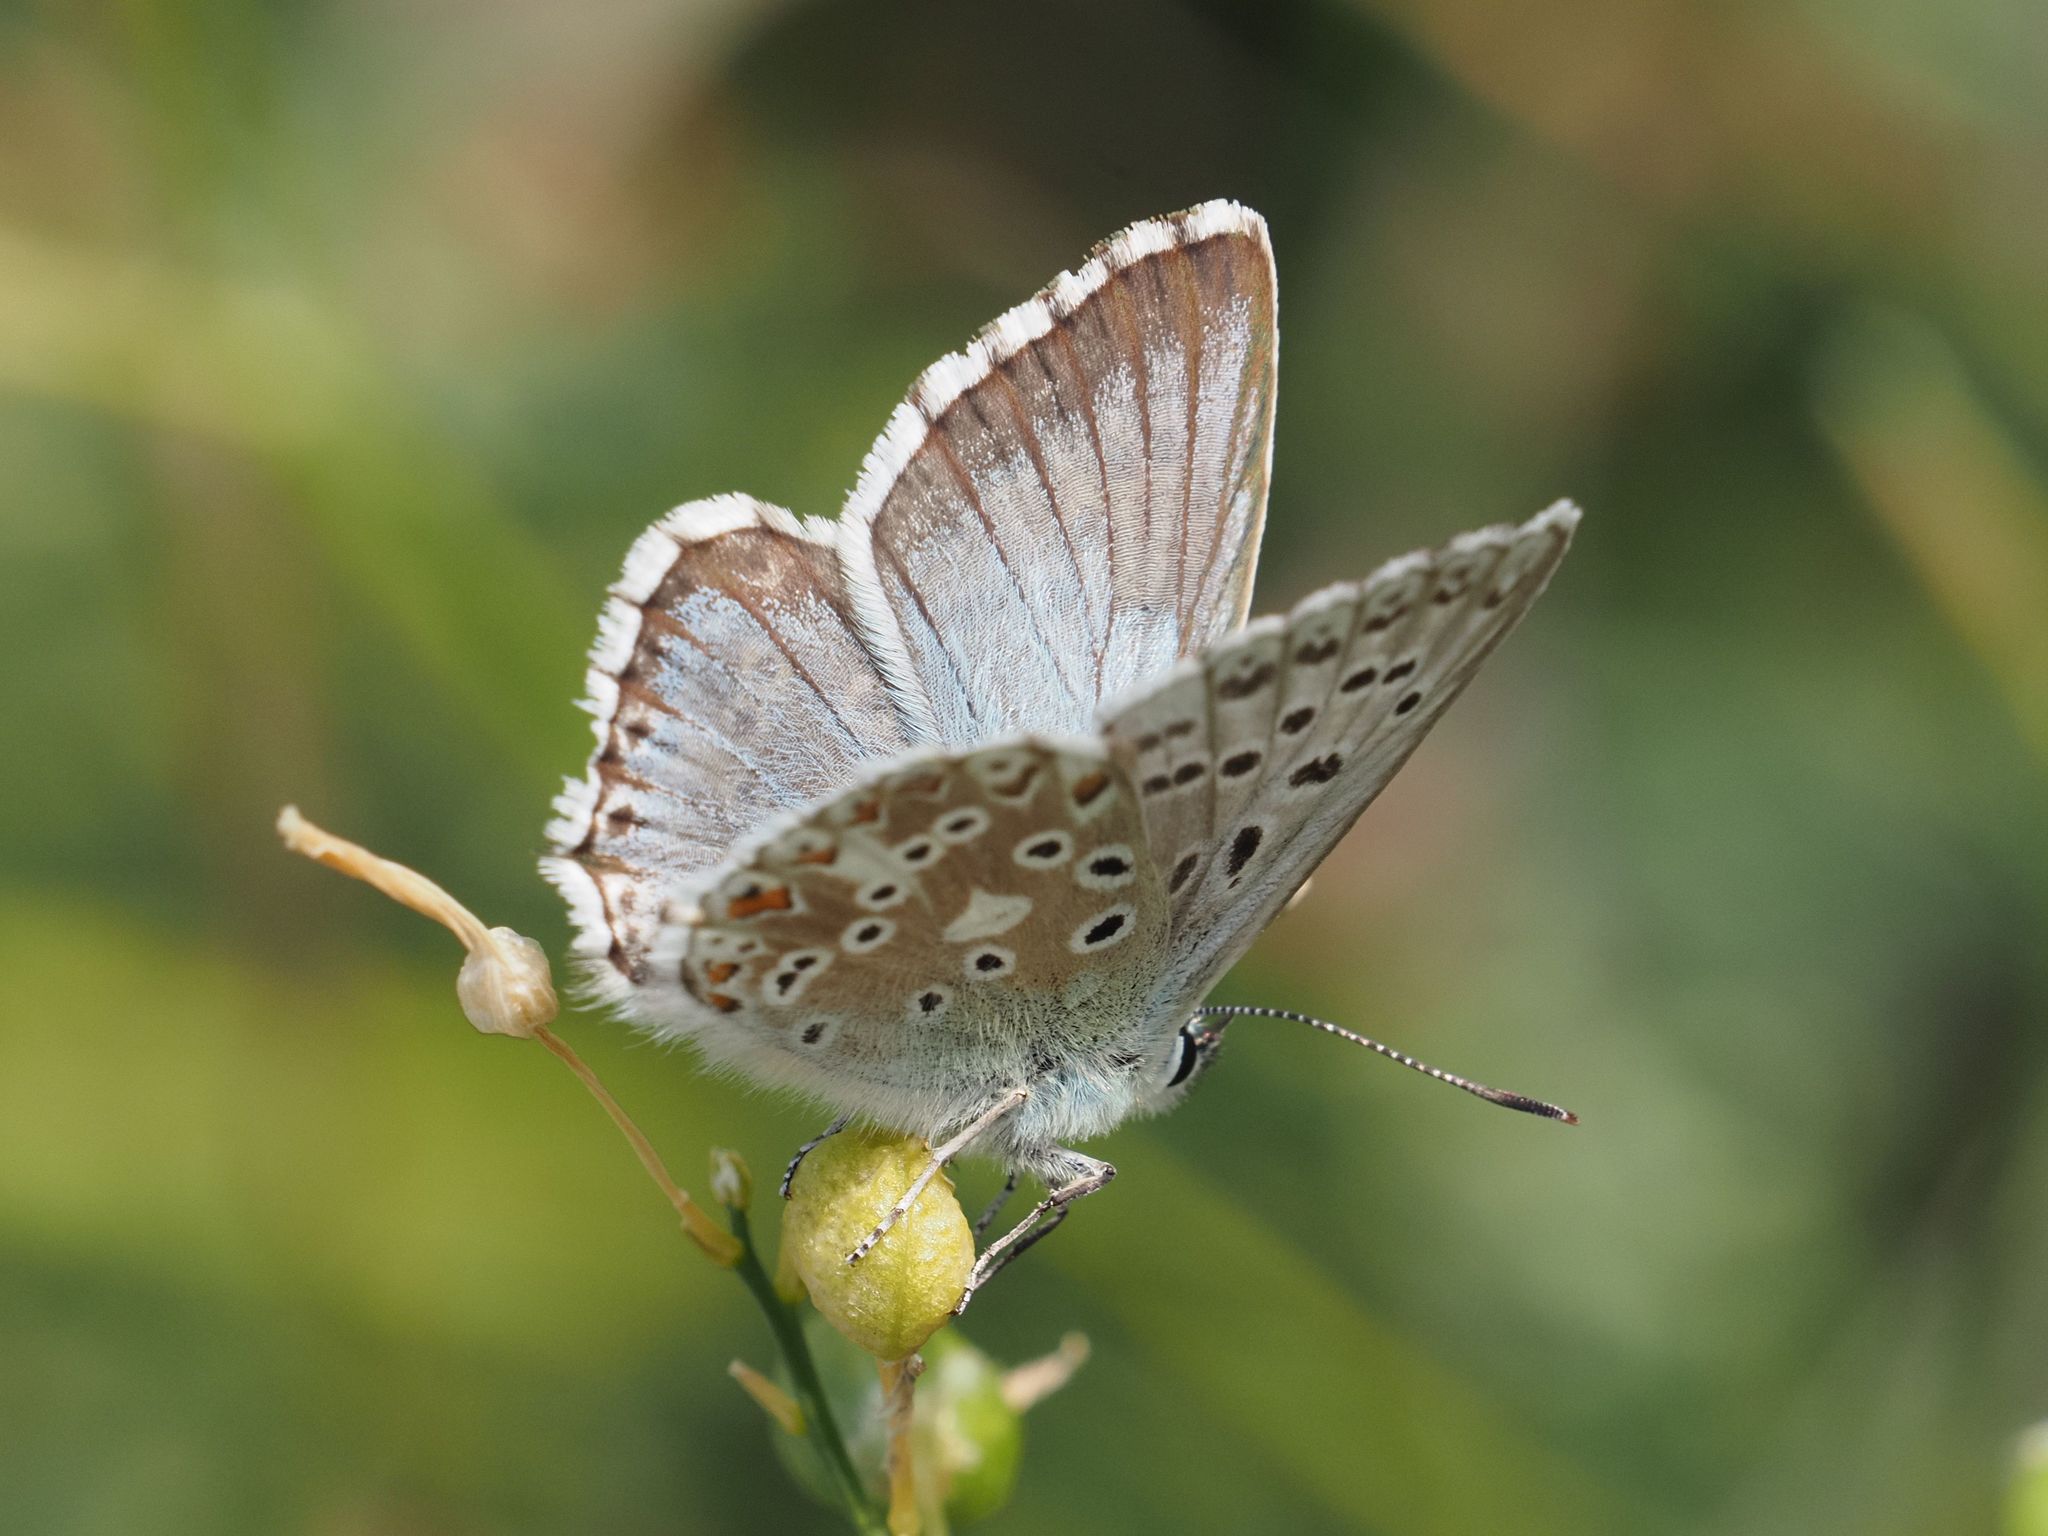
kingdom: Animalia
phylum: Arthropoda
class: Insecta
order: Lepidoptera
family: Lycaenidae
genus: Lysandra
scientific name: Lysandra coridon
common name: Chalkhill blue
